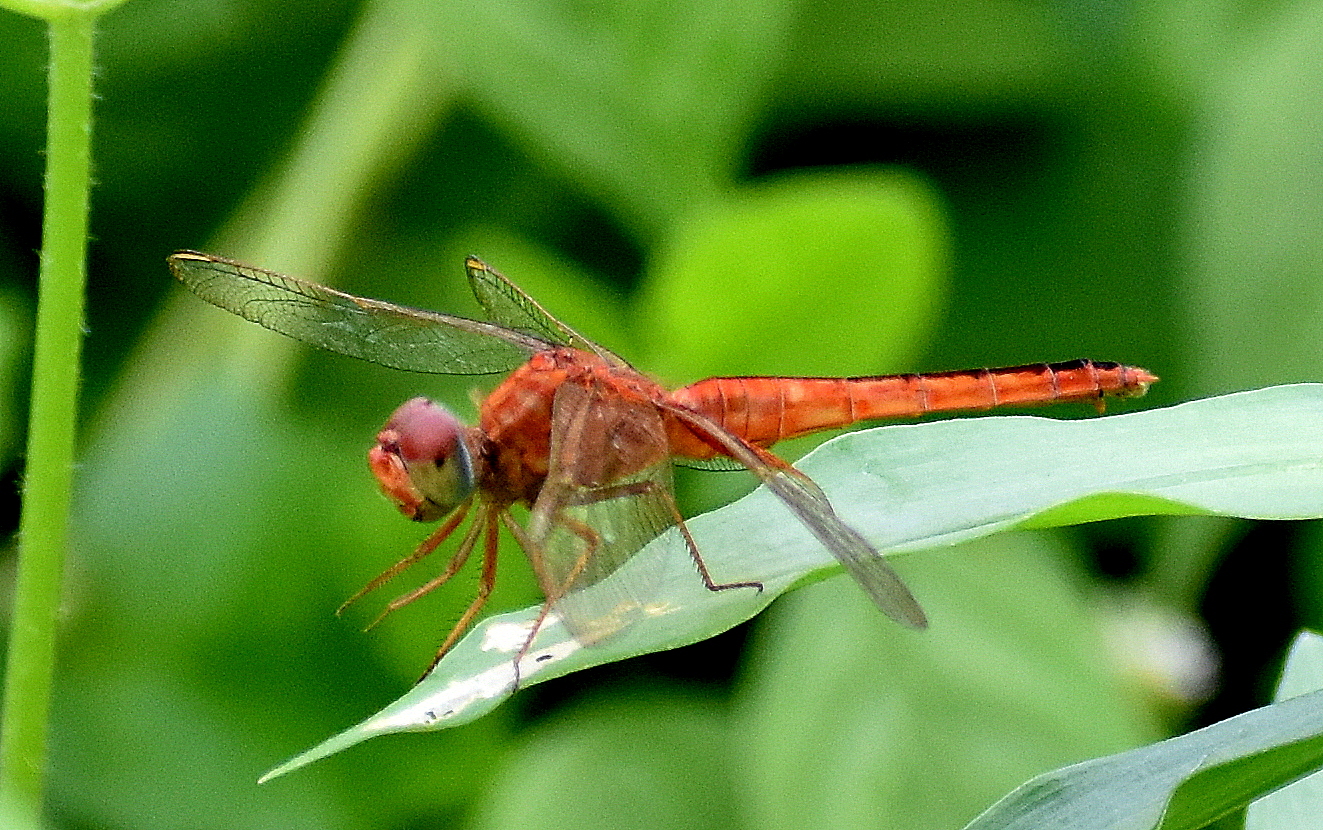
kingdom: Animalia
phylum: Arthropoda
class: Insecta
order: Odonata
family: Libellulidae
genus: Crocothemis
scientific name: Crocothemis servilia
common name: Scarlet skimmer
